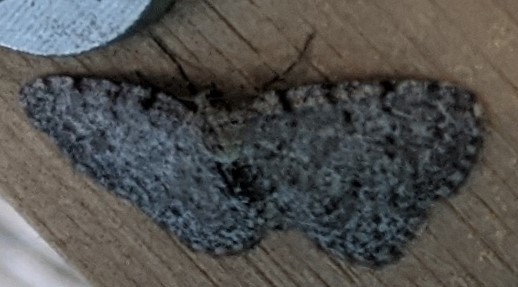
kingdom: Animalia
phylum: Arthropoda
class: Insecta
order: Lepidoptera
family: Geometridae
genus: Aethalura
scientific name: Aethalura intertexta
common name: Four-barred gray
